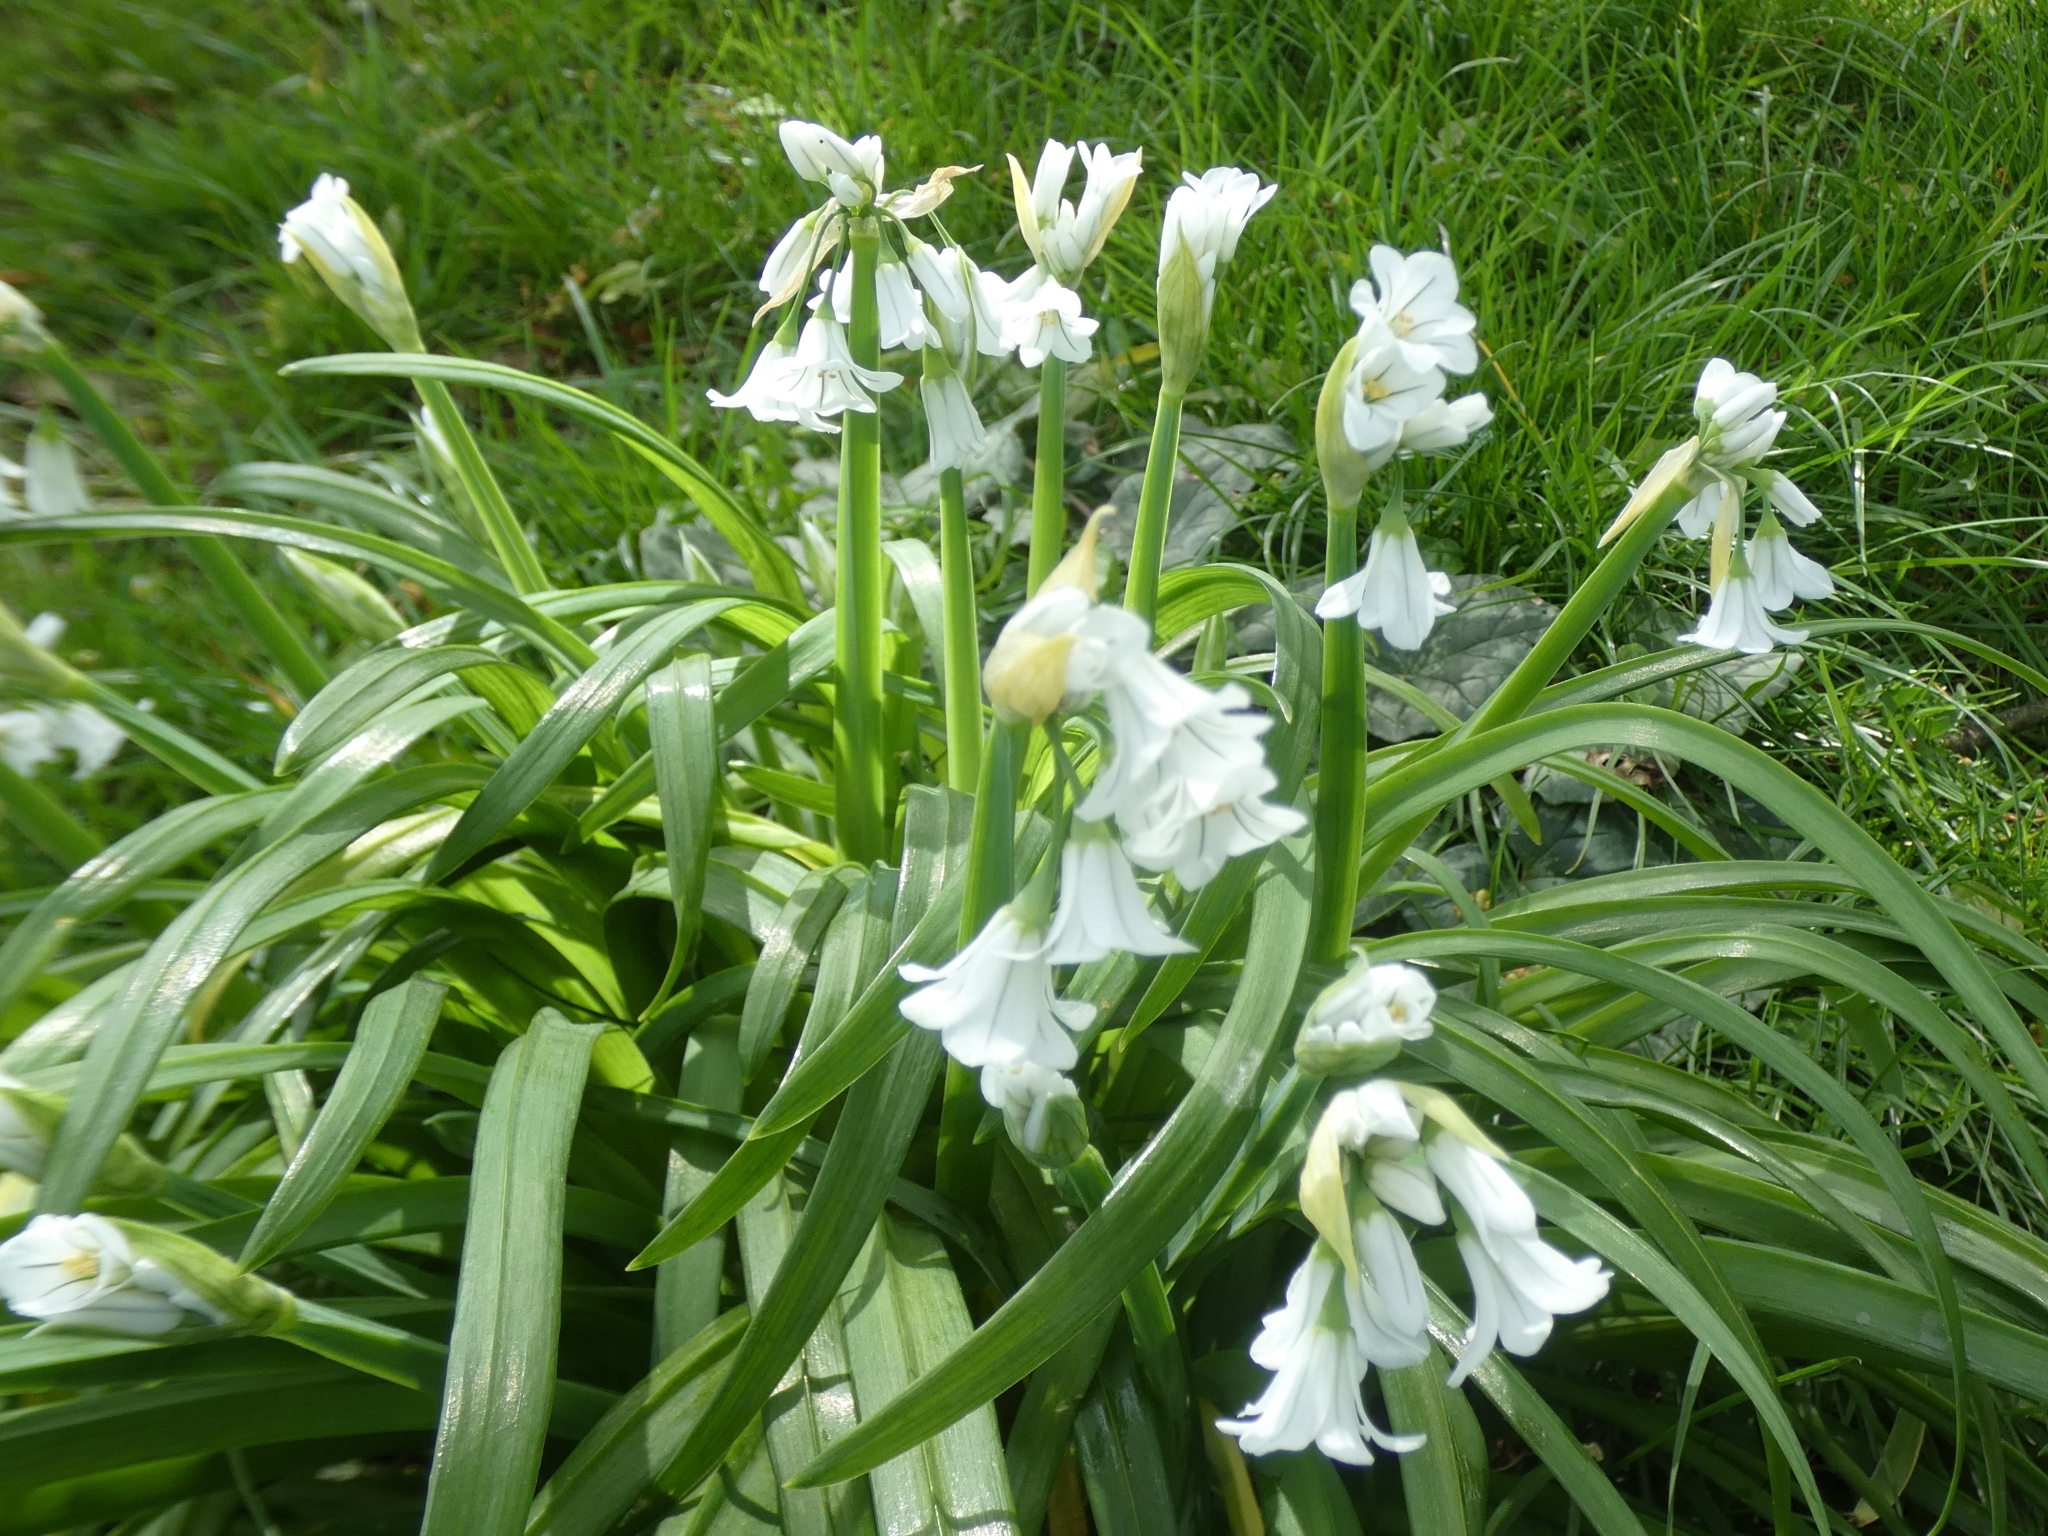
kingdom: Plantae
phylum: Tracheophyta
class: Liliopsida
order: Asparagales
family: Amaryllidaceae
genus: Allium
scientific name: Allium triquetrum
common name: Three-cornered garlic
